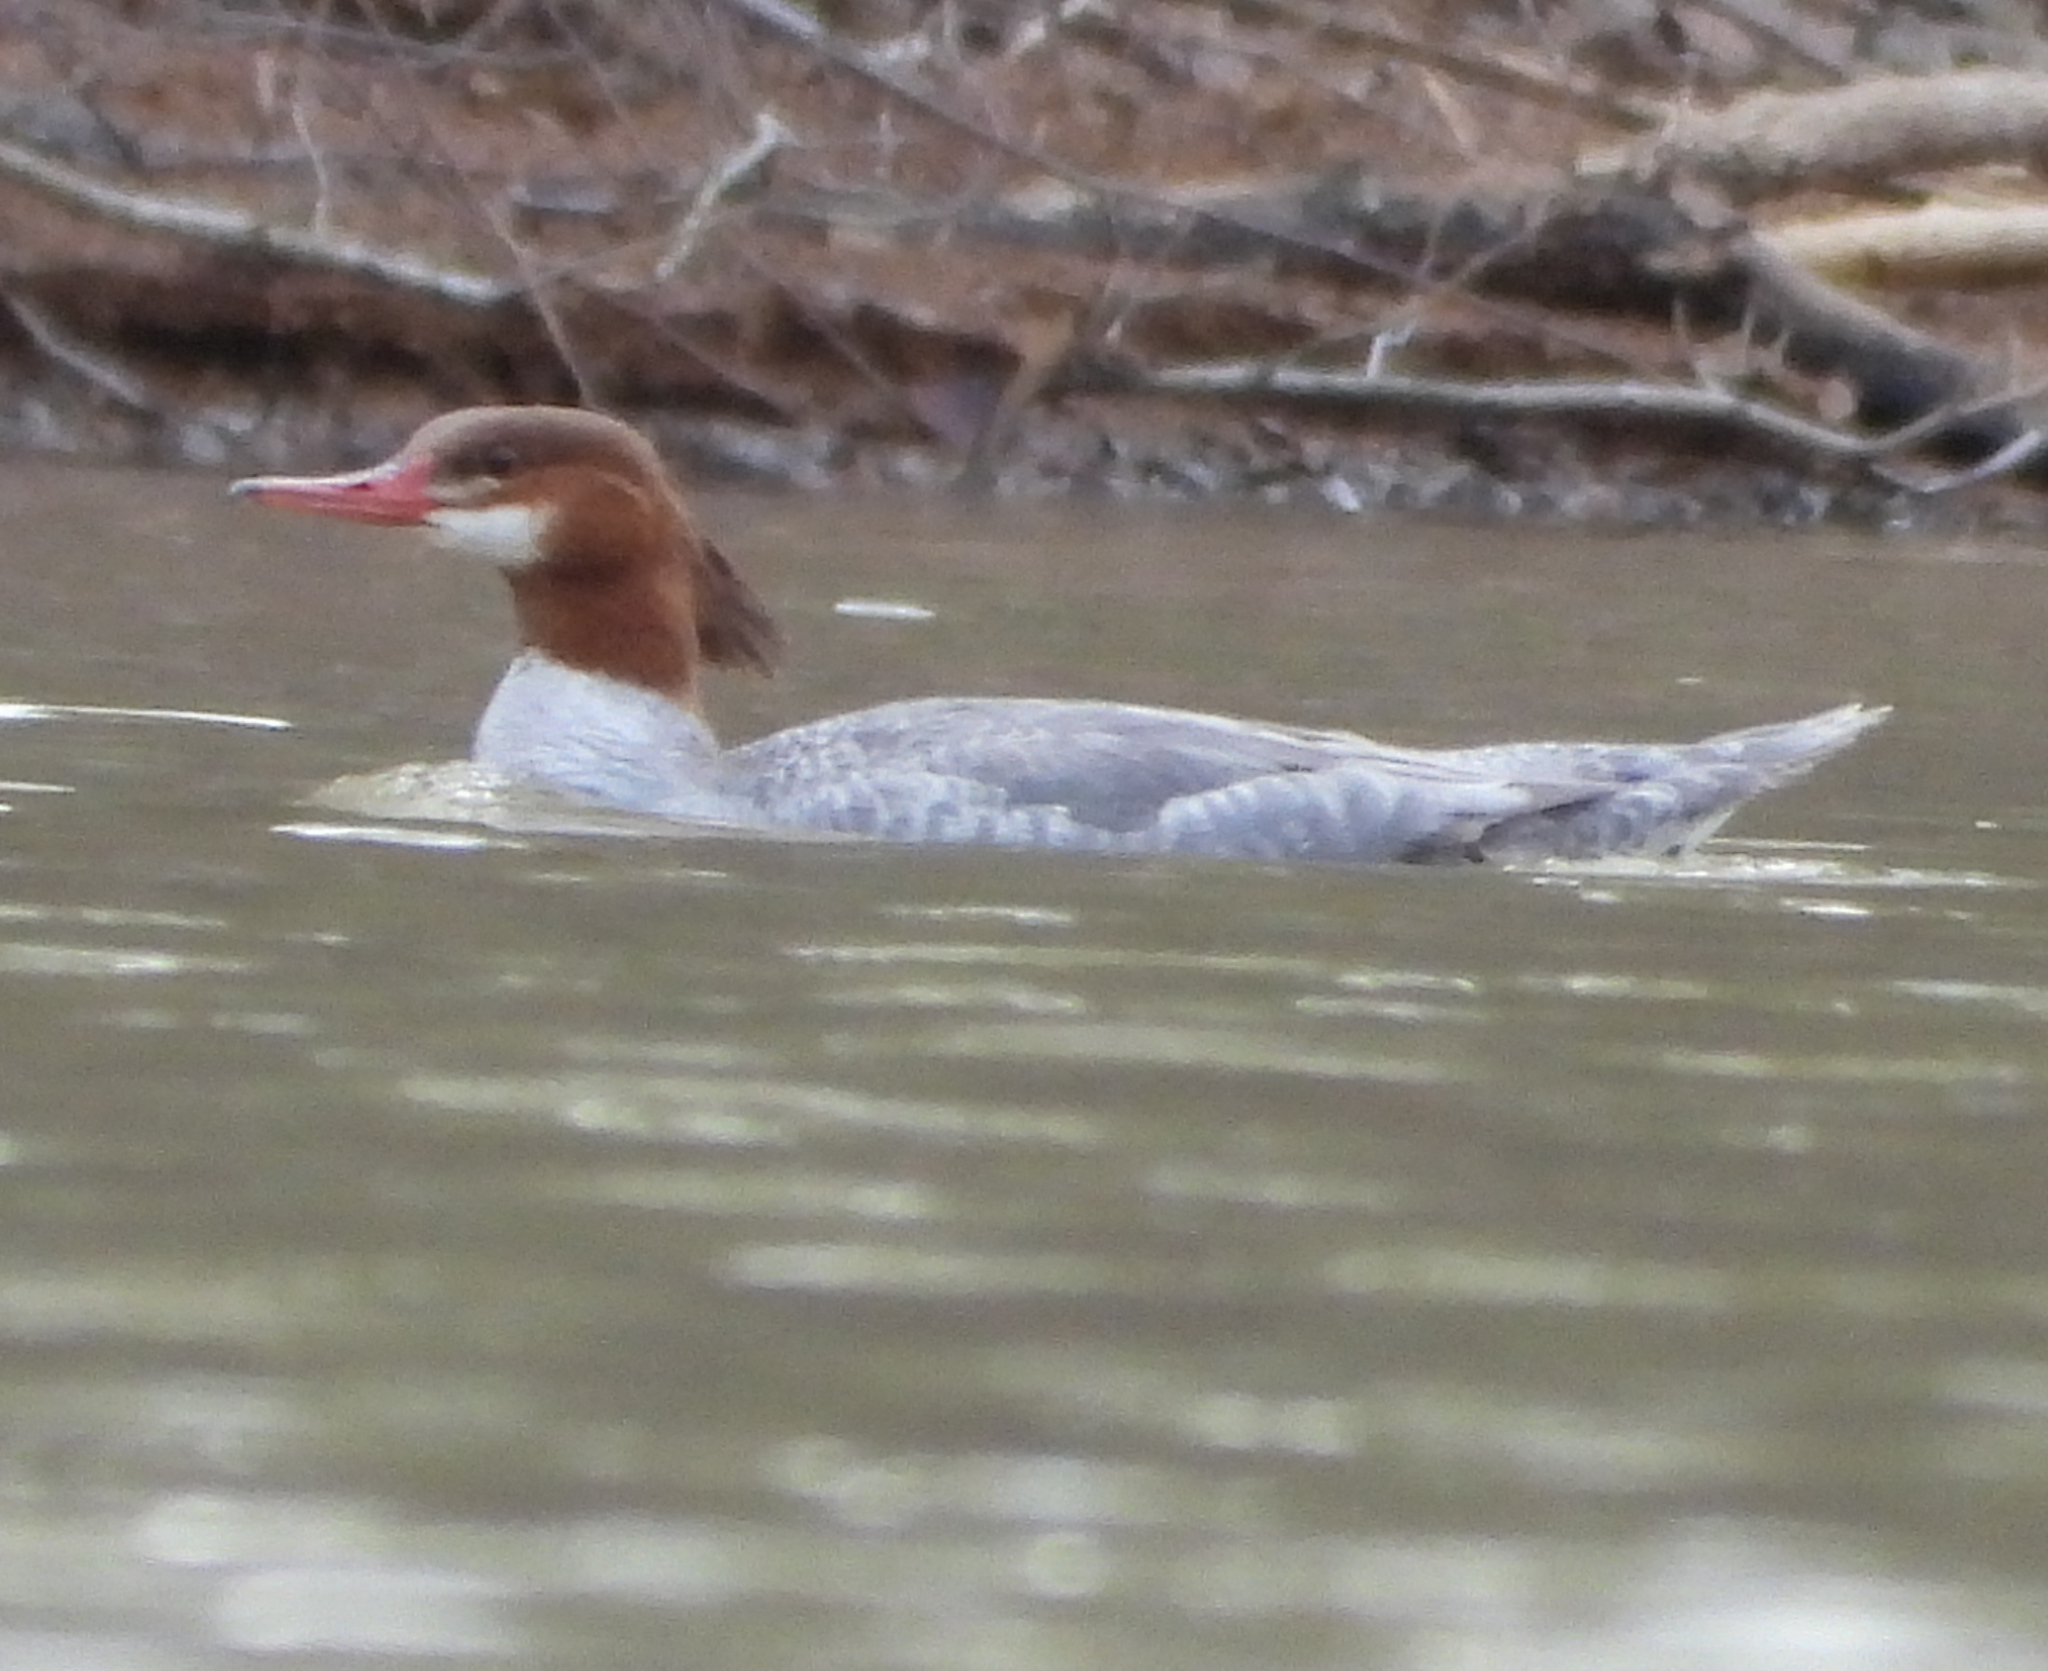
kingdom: Animalia
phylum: Chordata
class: Aves
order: Anseriformes
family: Anatidae
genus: Mergus
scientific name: Mergus merganser
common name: Common merganser
